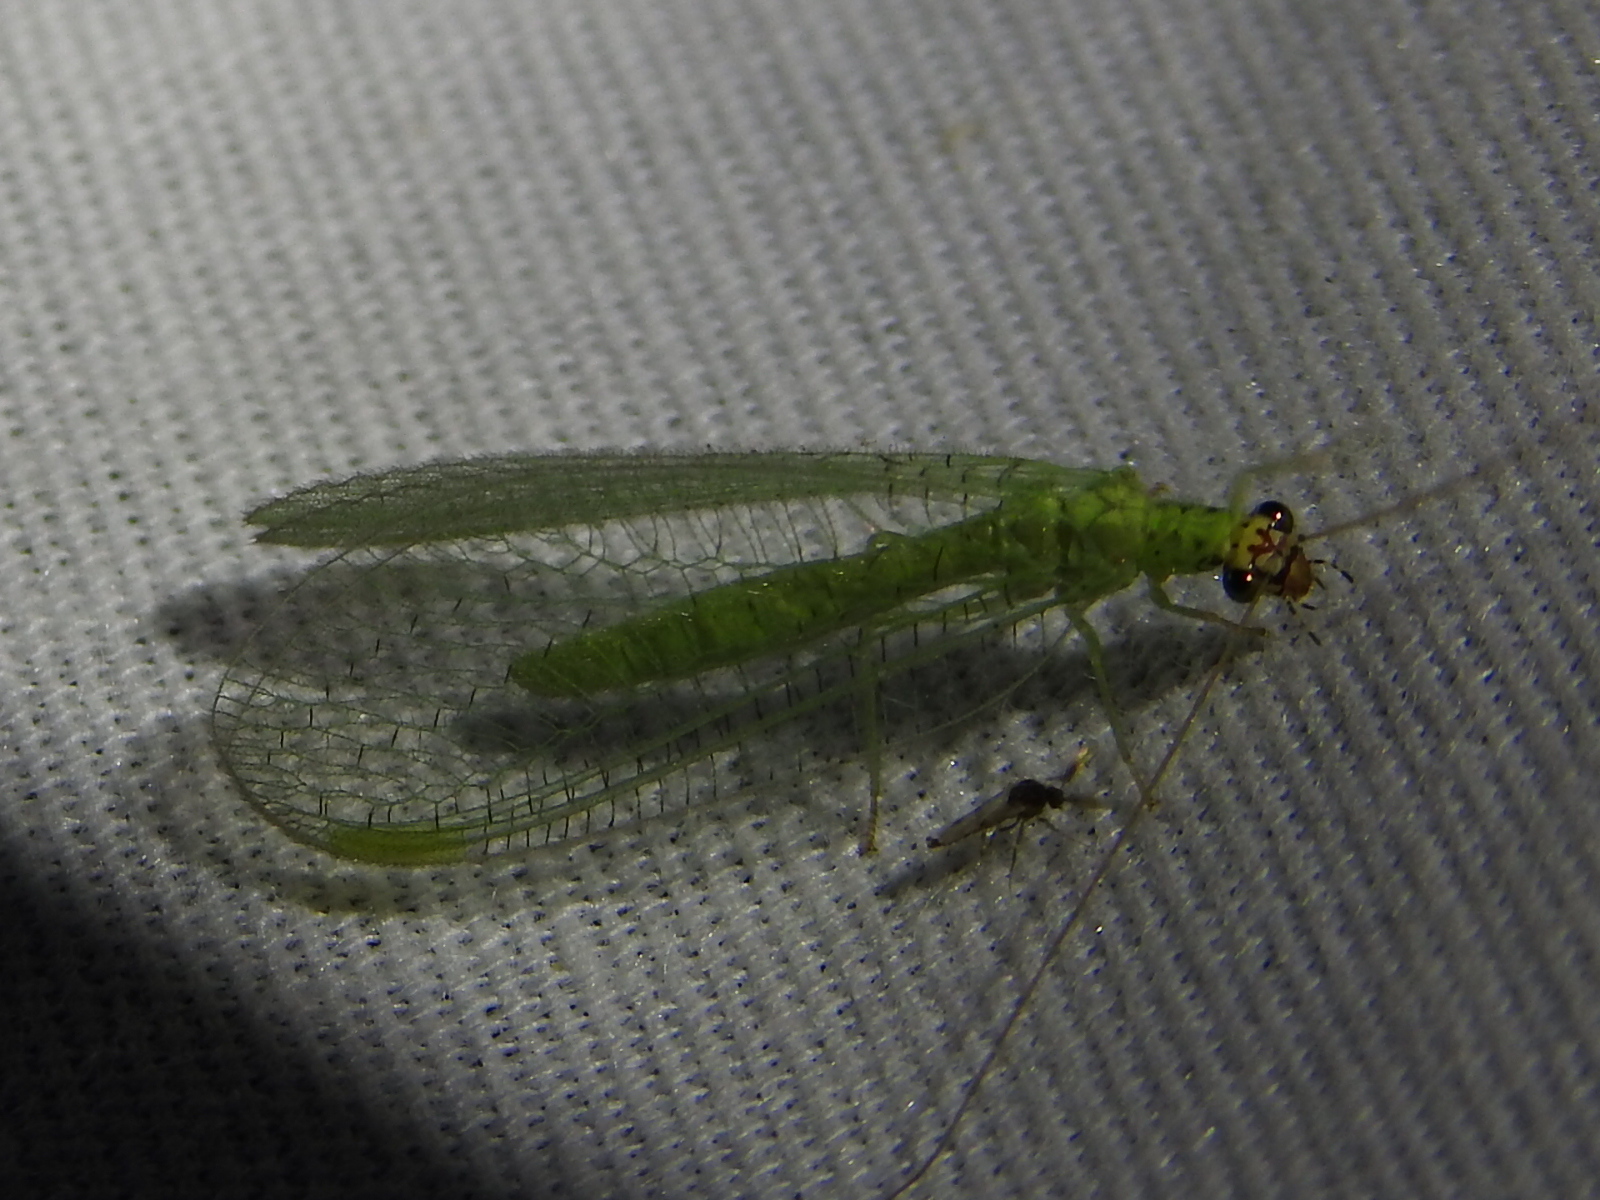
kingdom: Animalia
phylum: Arthropoda
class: Insecta
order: Neuroptera
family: Chrysopidae
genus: Chrysopa
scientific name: Chrysopa oculata
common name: Golden-eyed lacewing
